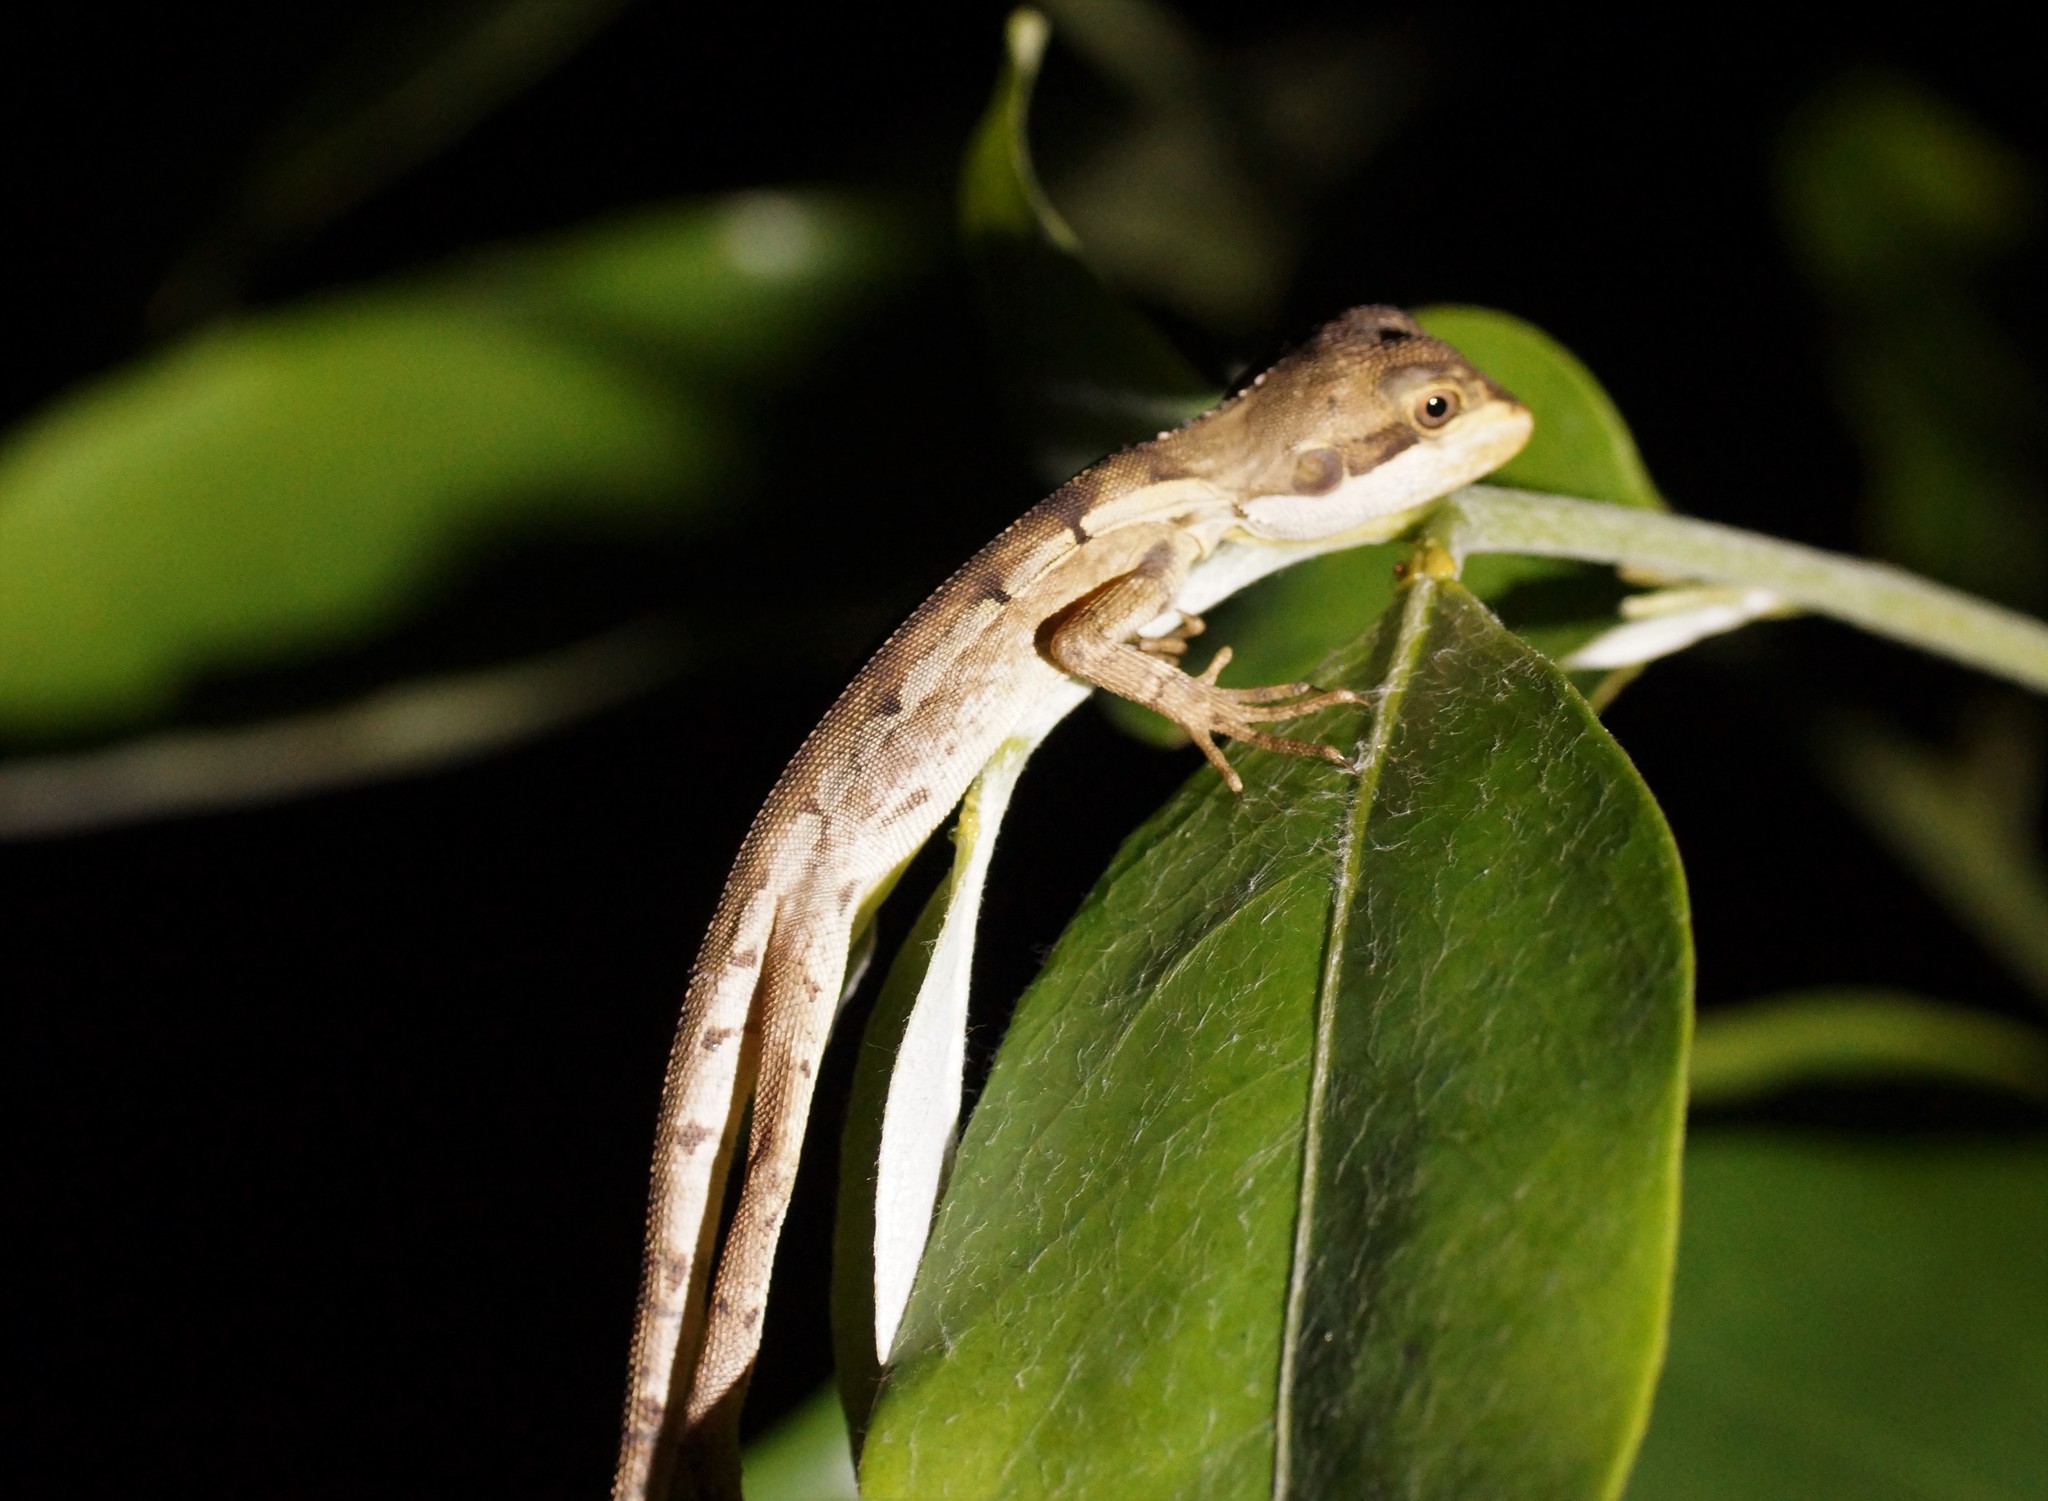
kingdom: Animalia
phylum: Chordata
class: Squamata
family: Agamidae
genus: Tropicagama
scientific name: Tropicagama temporalis
